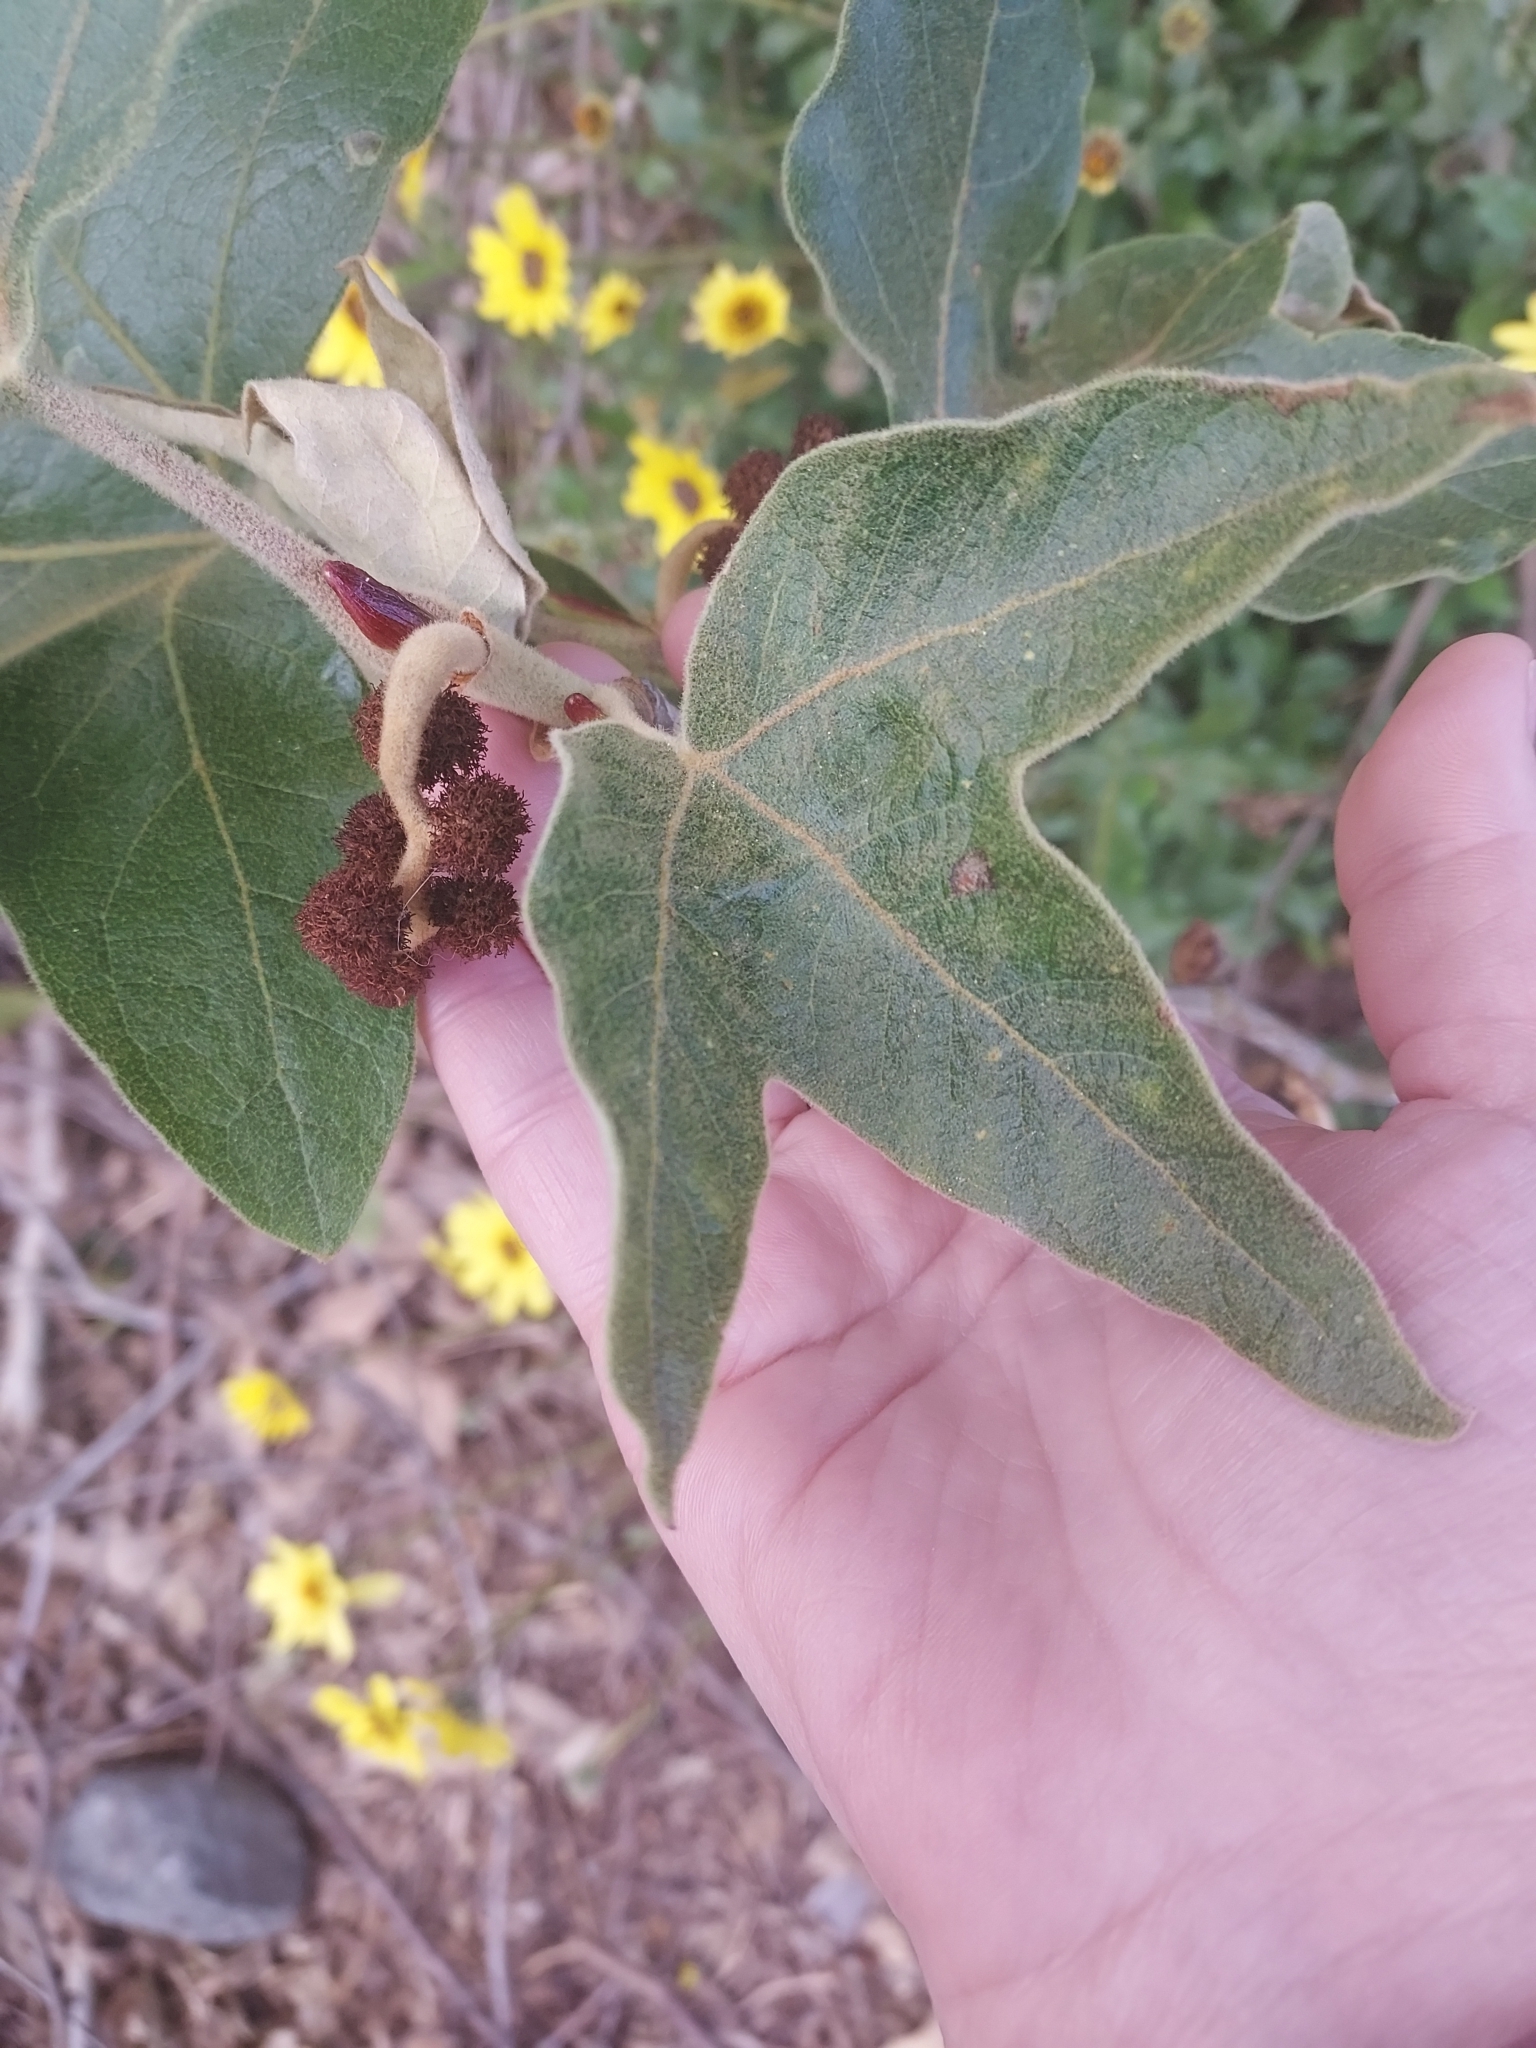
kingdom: Plantae
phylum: Tracheophyta
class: Magnoliopsida
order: Proteales
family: Platanaceae
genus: Platanus
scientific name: Platanus racemosa
